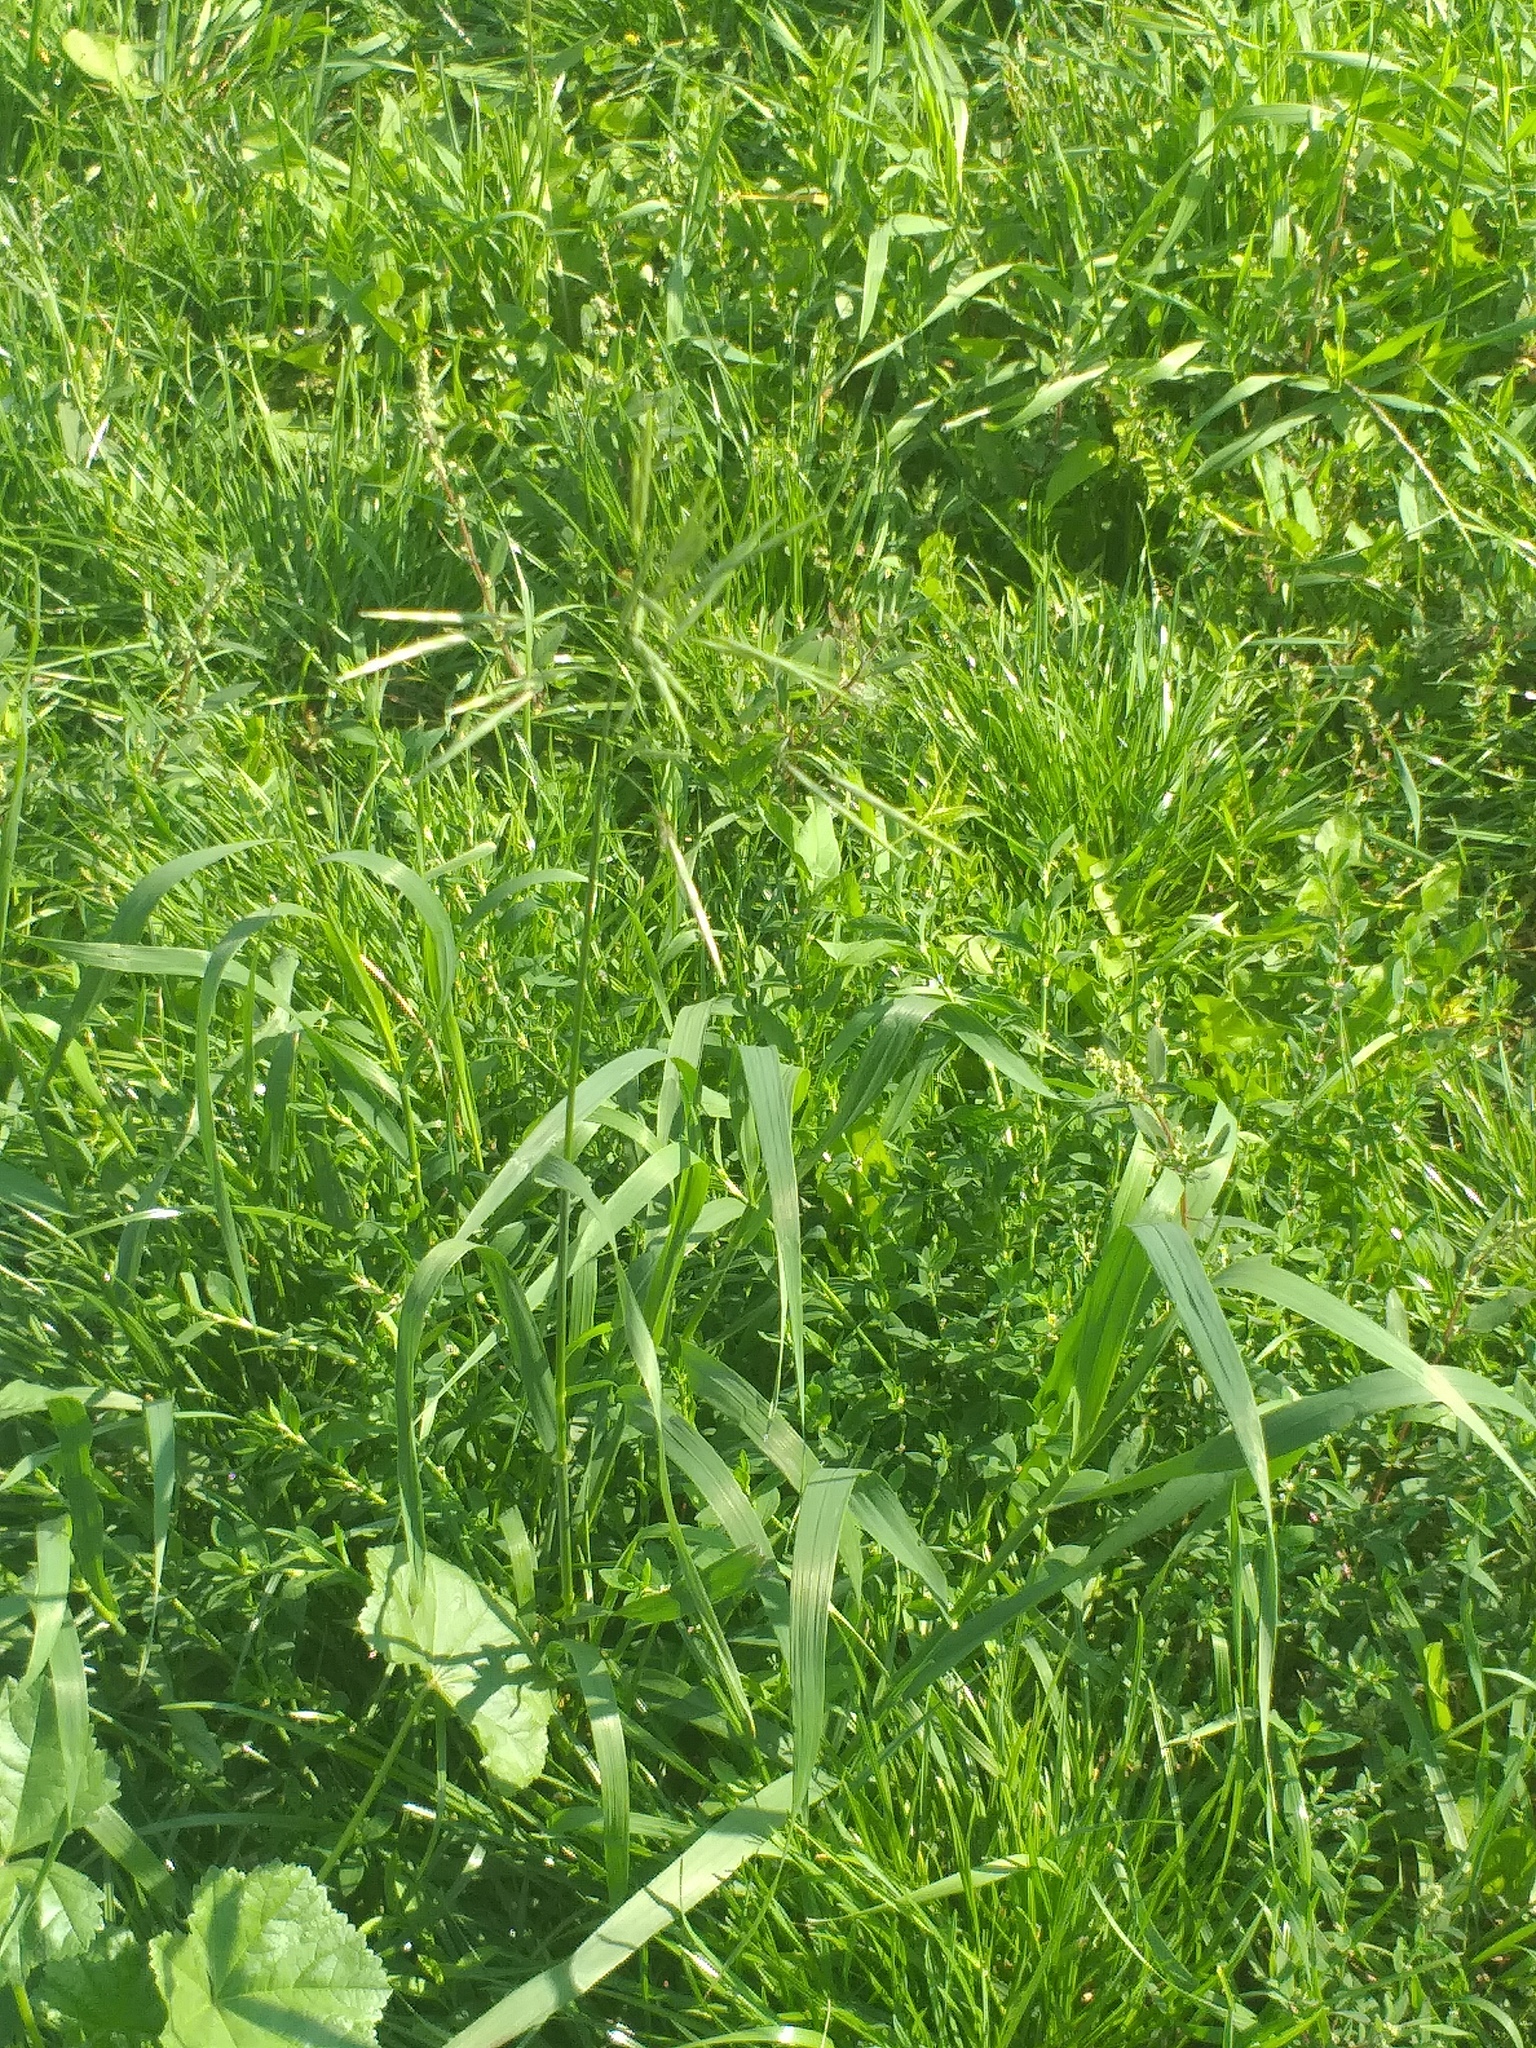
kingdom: Plantae
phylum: Tracheophyta
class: Liliopsida
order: Poales
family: Poaceae
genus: Bromus
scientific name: Bromus inermis
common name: Smooth brome
